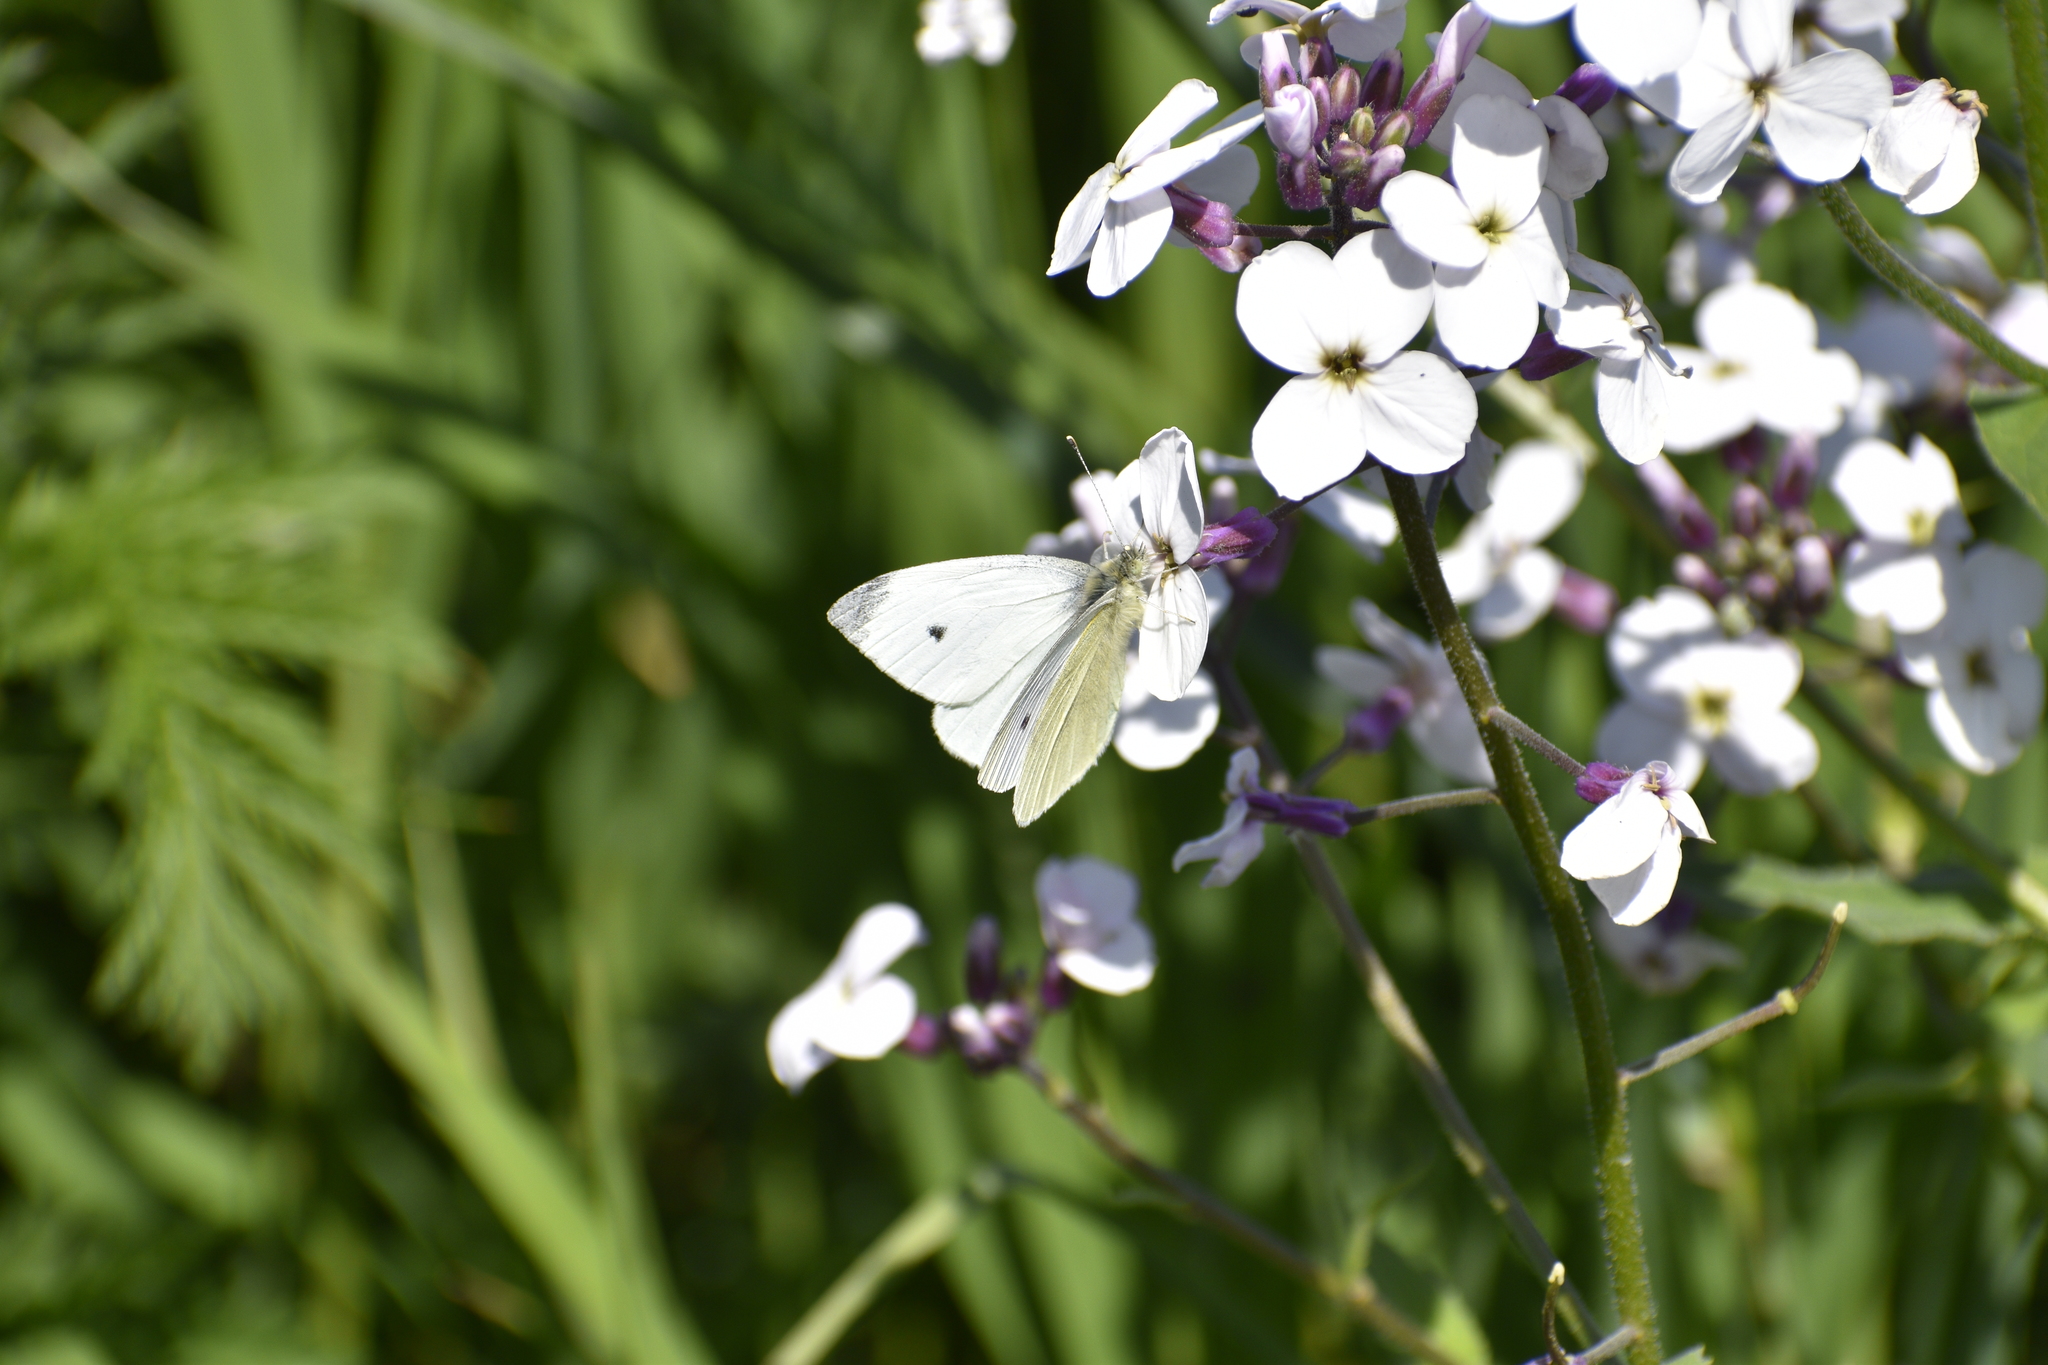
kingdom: Animalia
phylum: Arthropoda
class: Insecta
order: Lepidoptera
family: Pieridae
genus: Pieris
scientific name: Pieris rapae
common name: Small white
